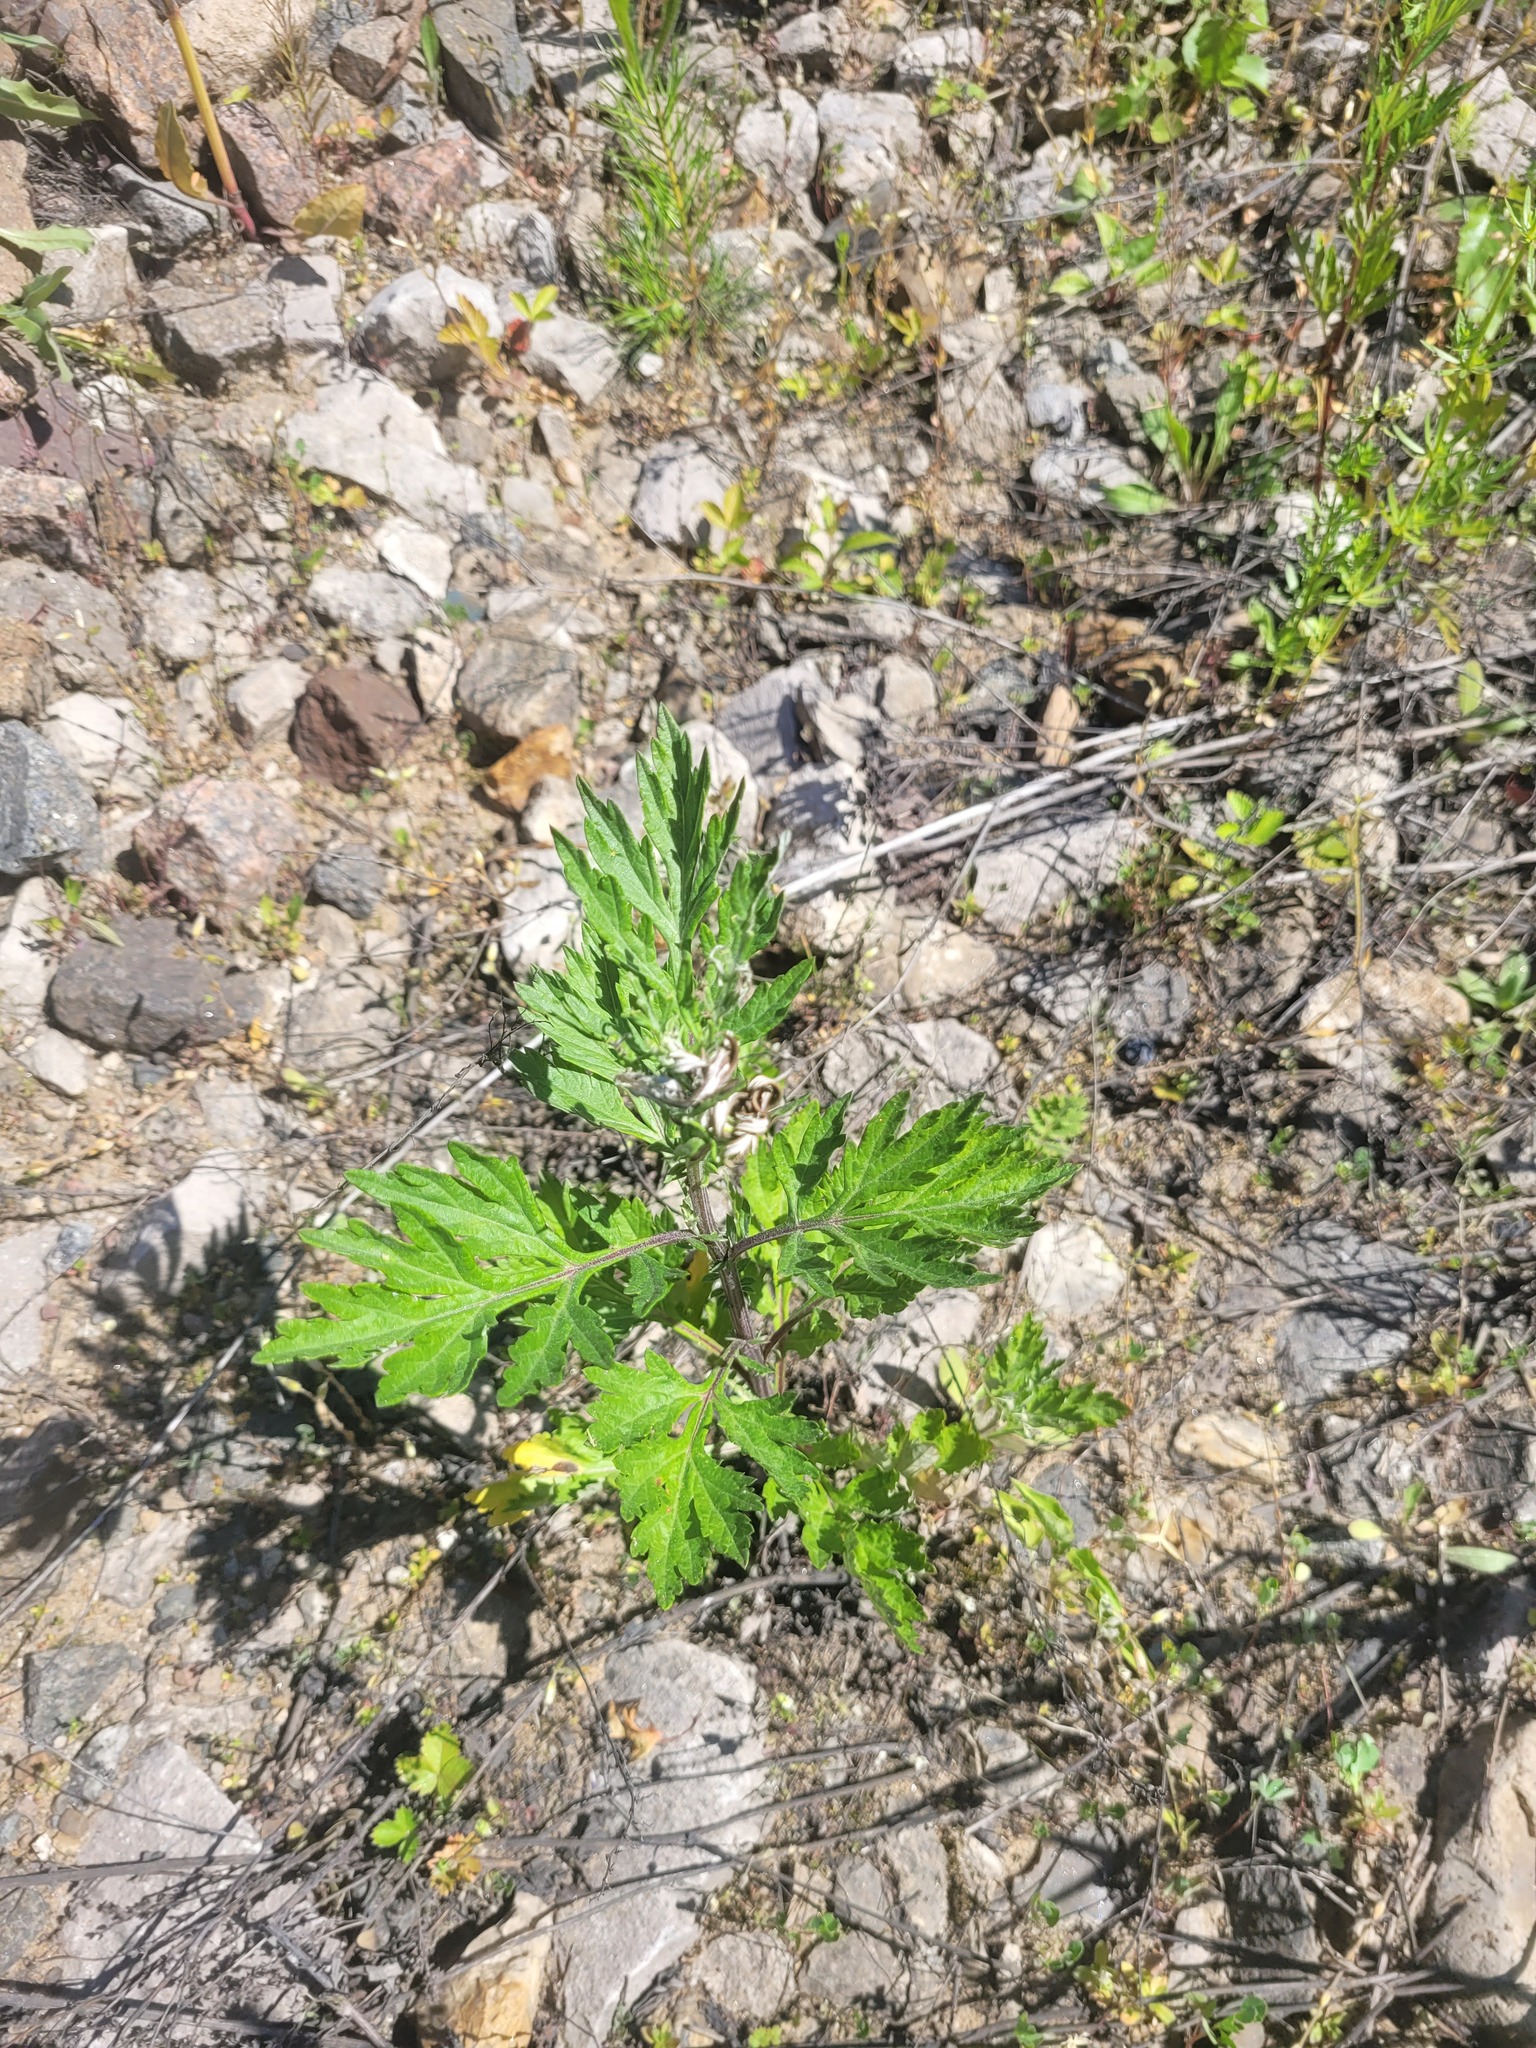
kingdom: Plantae
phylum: Tracheophyta
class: Magnoliopsida
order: Asterales
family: Asteraceae
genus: Artemisia
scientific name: Artemisia vulgaris
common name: Mugwort
